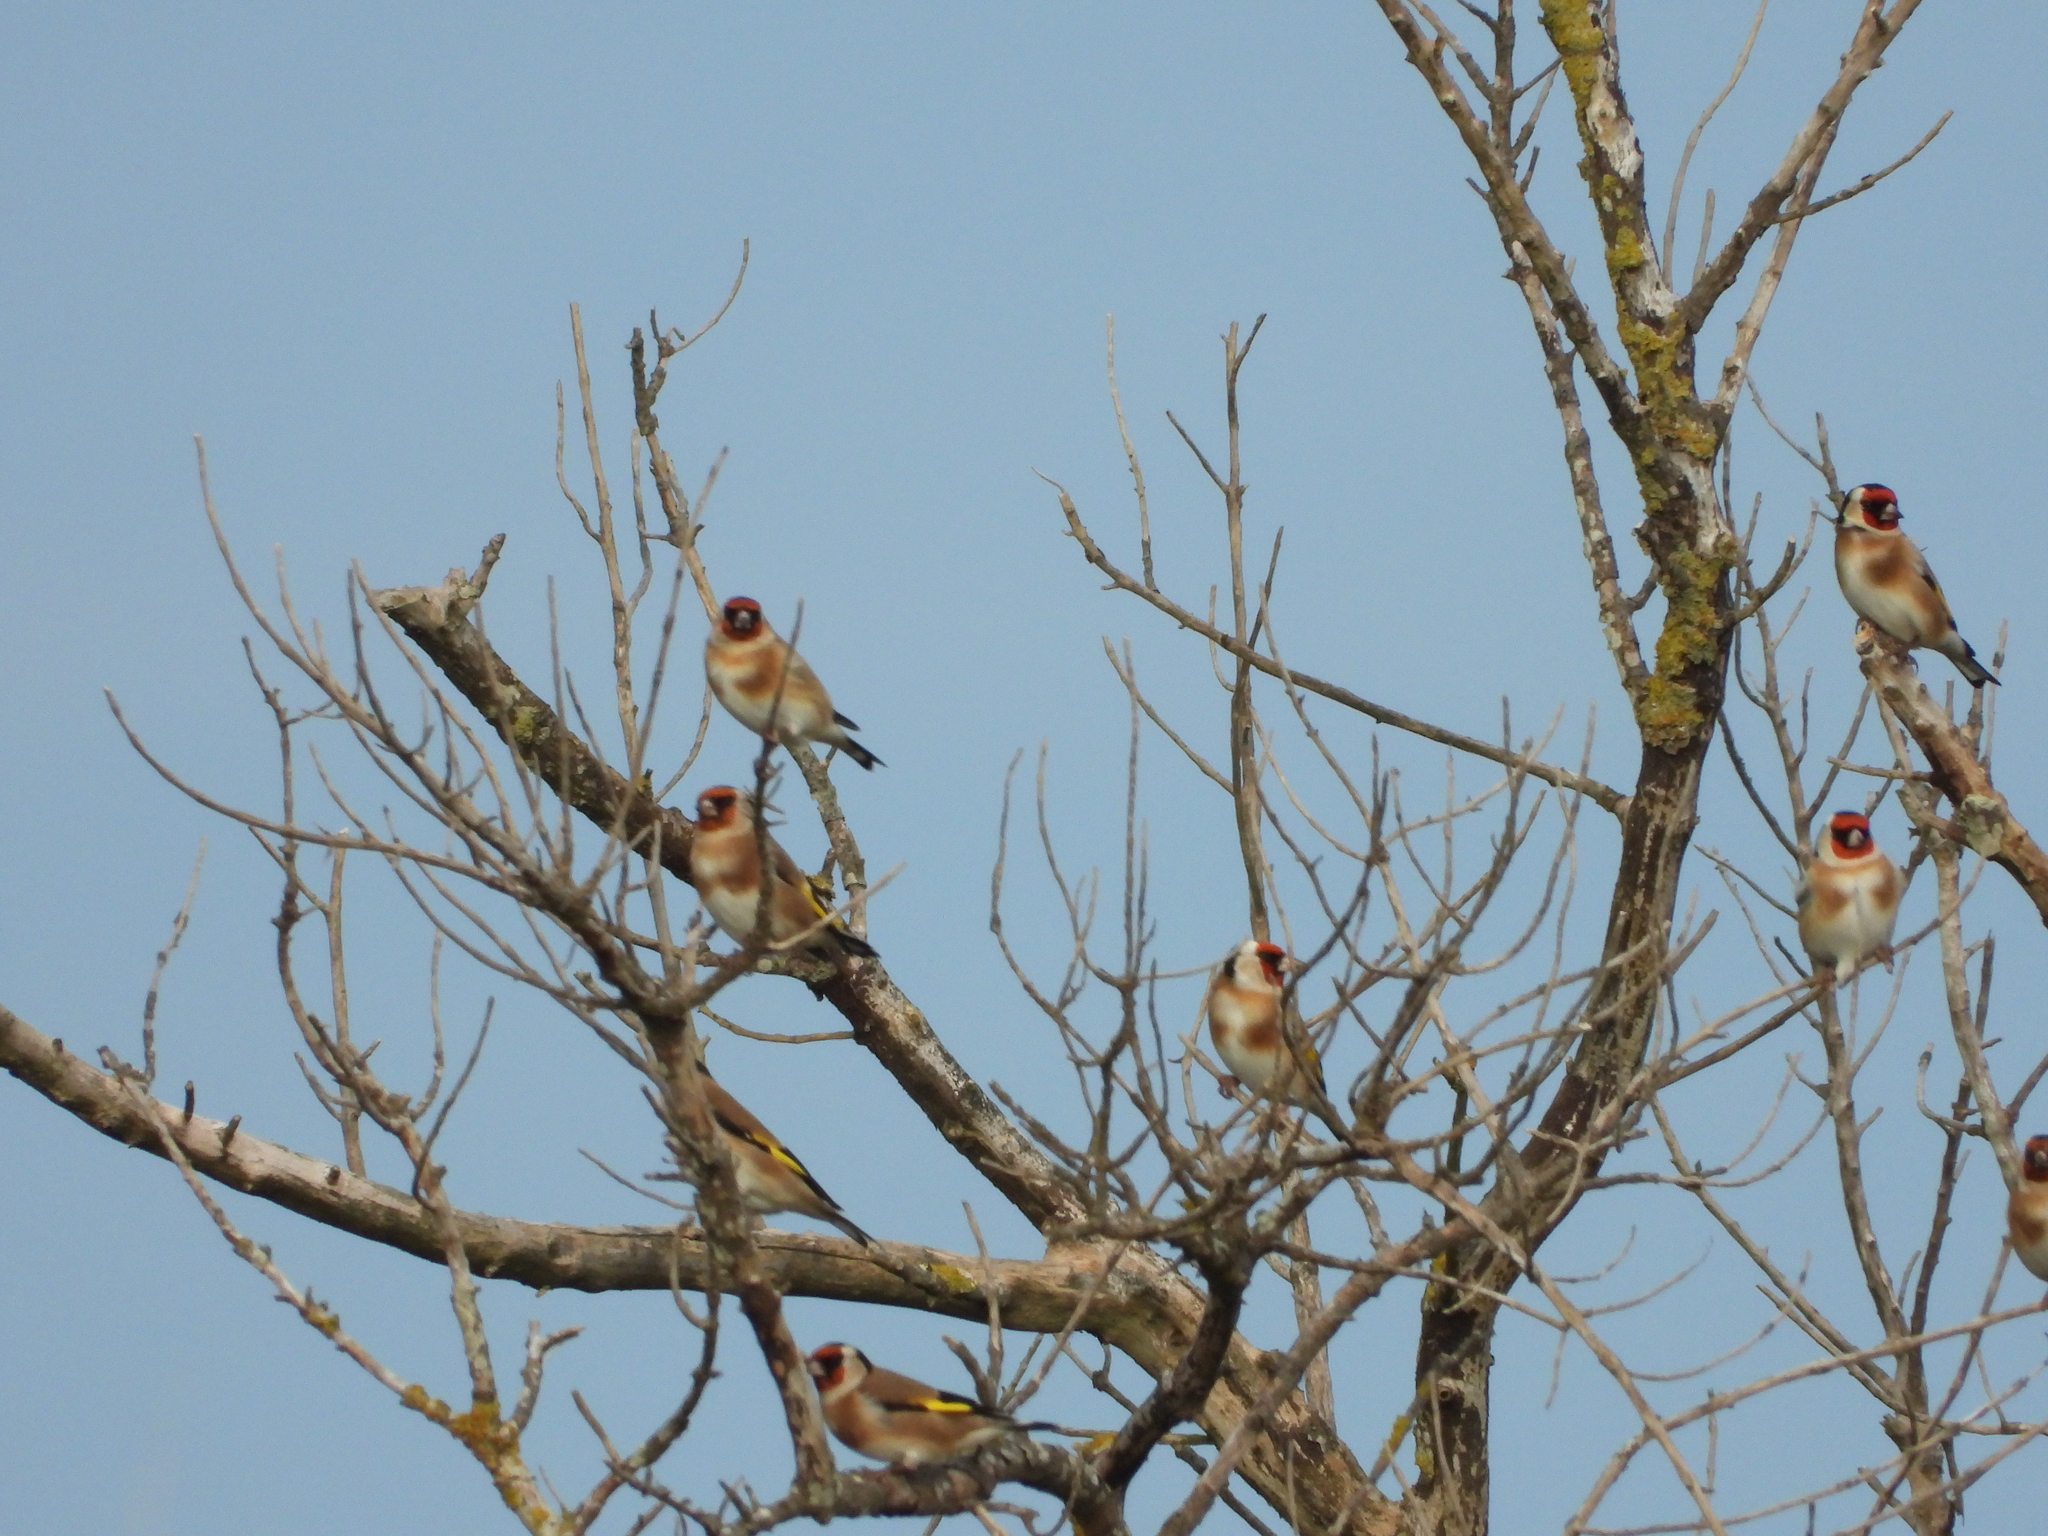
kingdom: Animalia
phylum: Chordata
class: Aves
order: Passeriformes
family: Fringillidae
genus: Carduelis
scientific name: Carduelis carduelis
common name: European goldfinch
